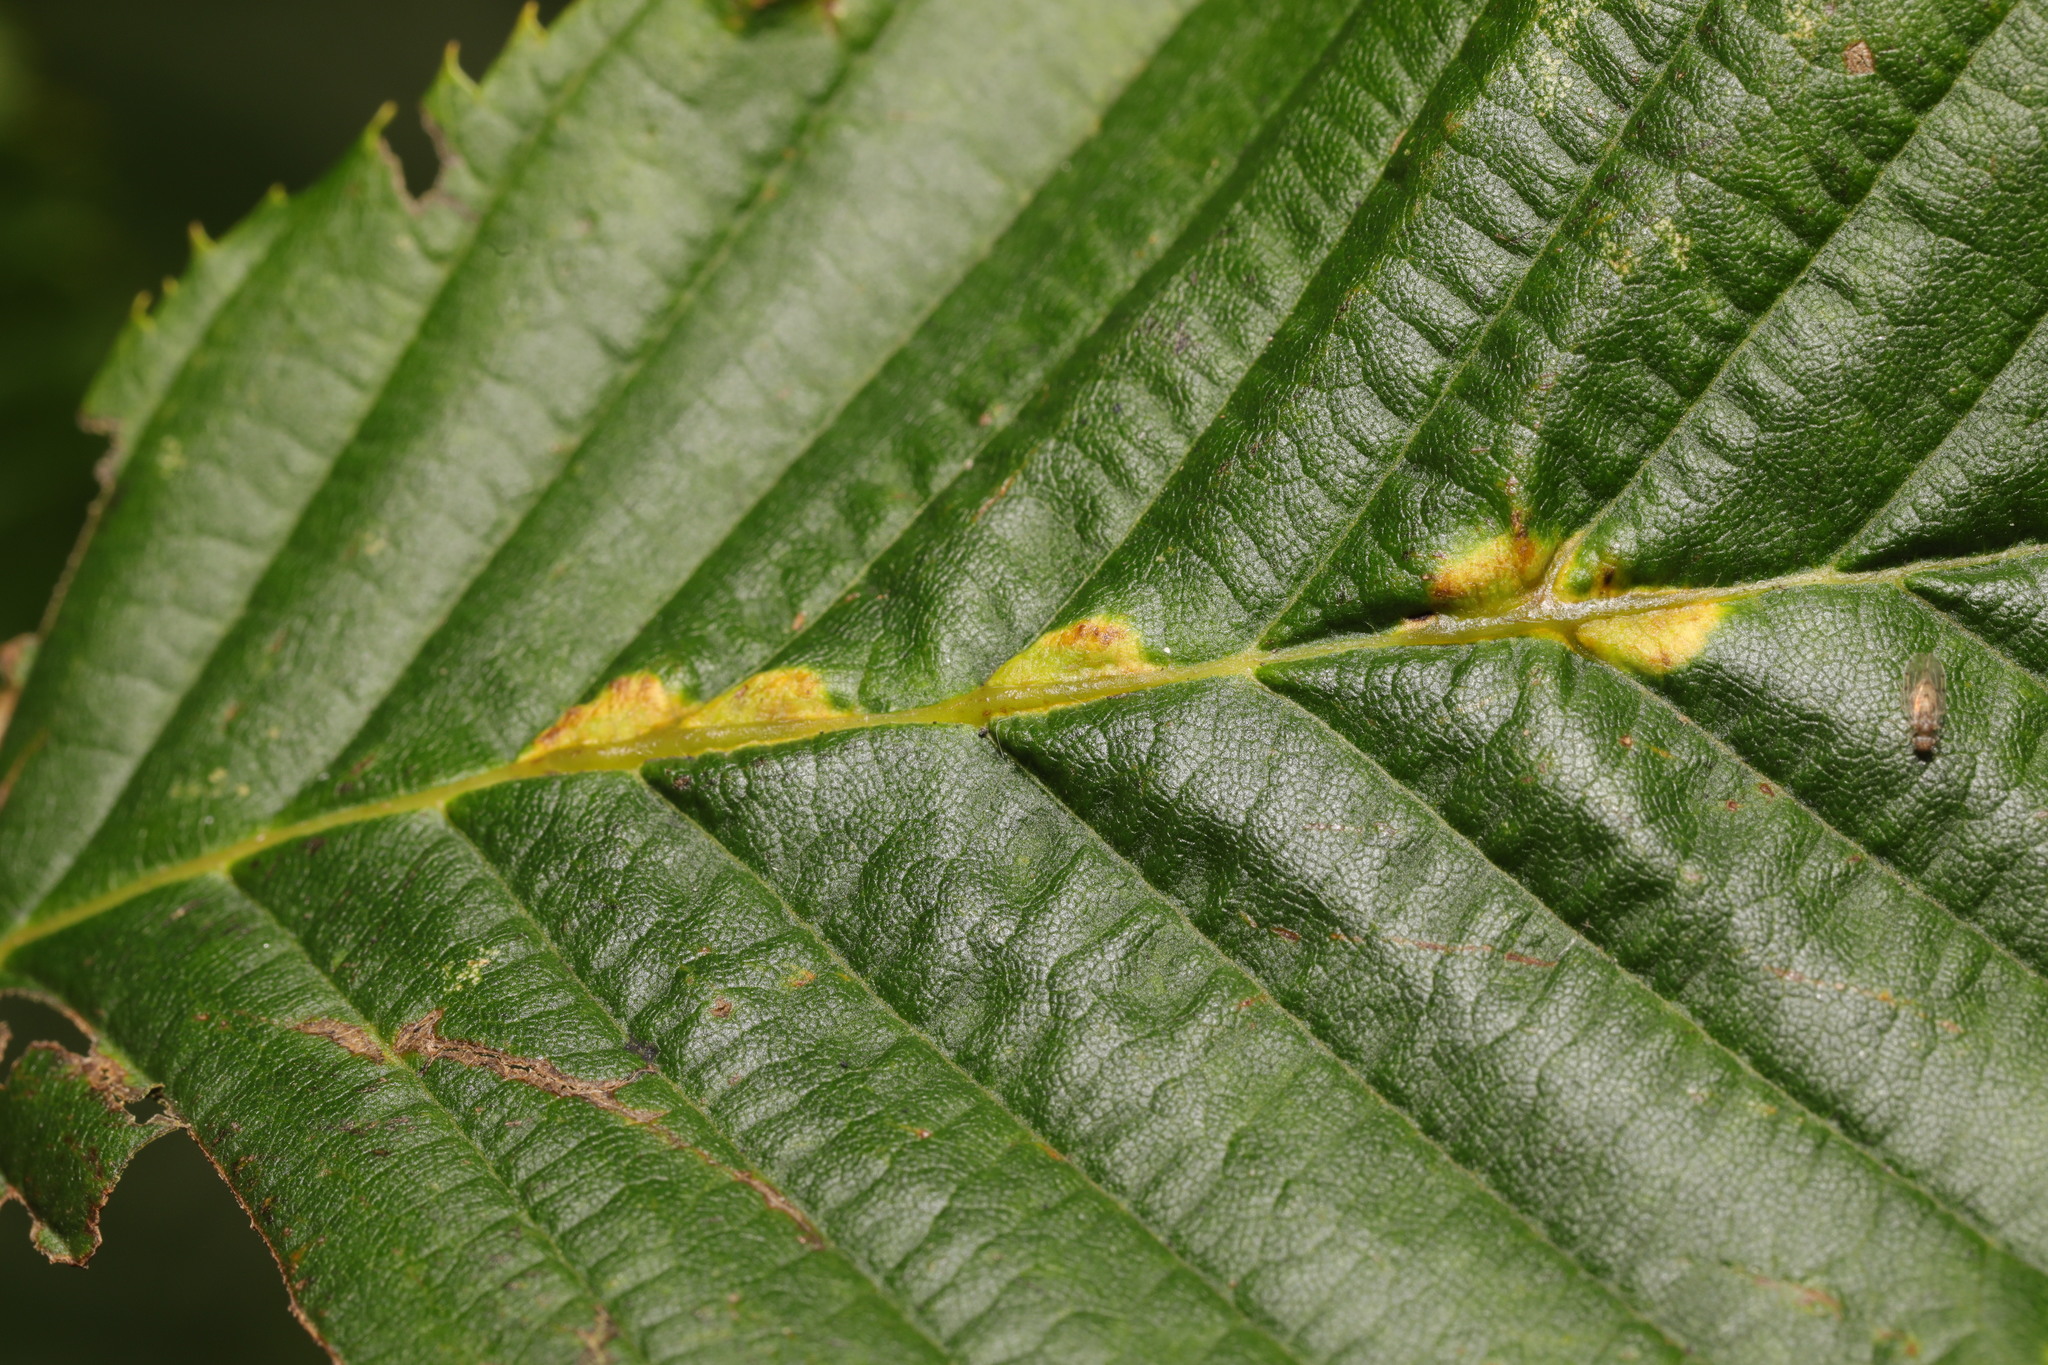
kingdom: Animalia
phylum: Arthropoda
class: Insecta
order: Diptera
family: Cecidomyiidae
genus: Zygiobia
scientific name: Zygiobia carpini
